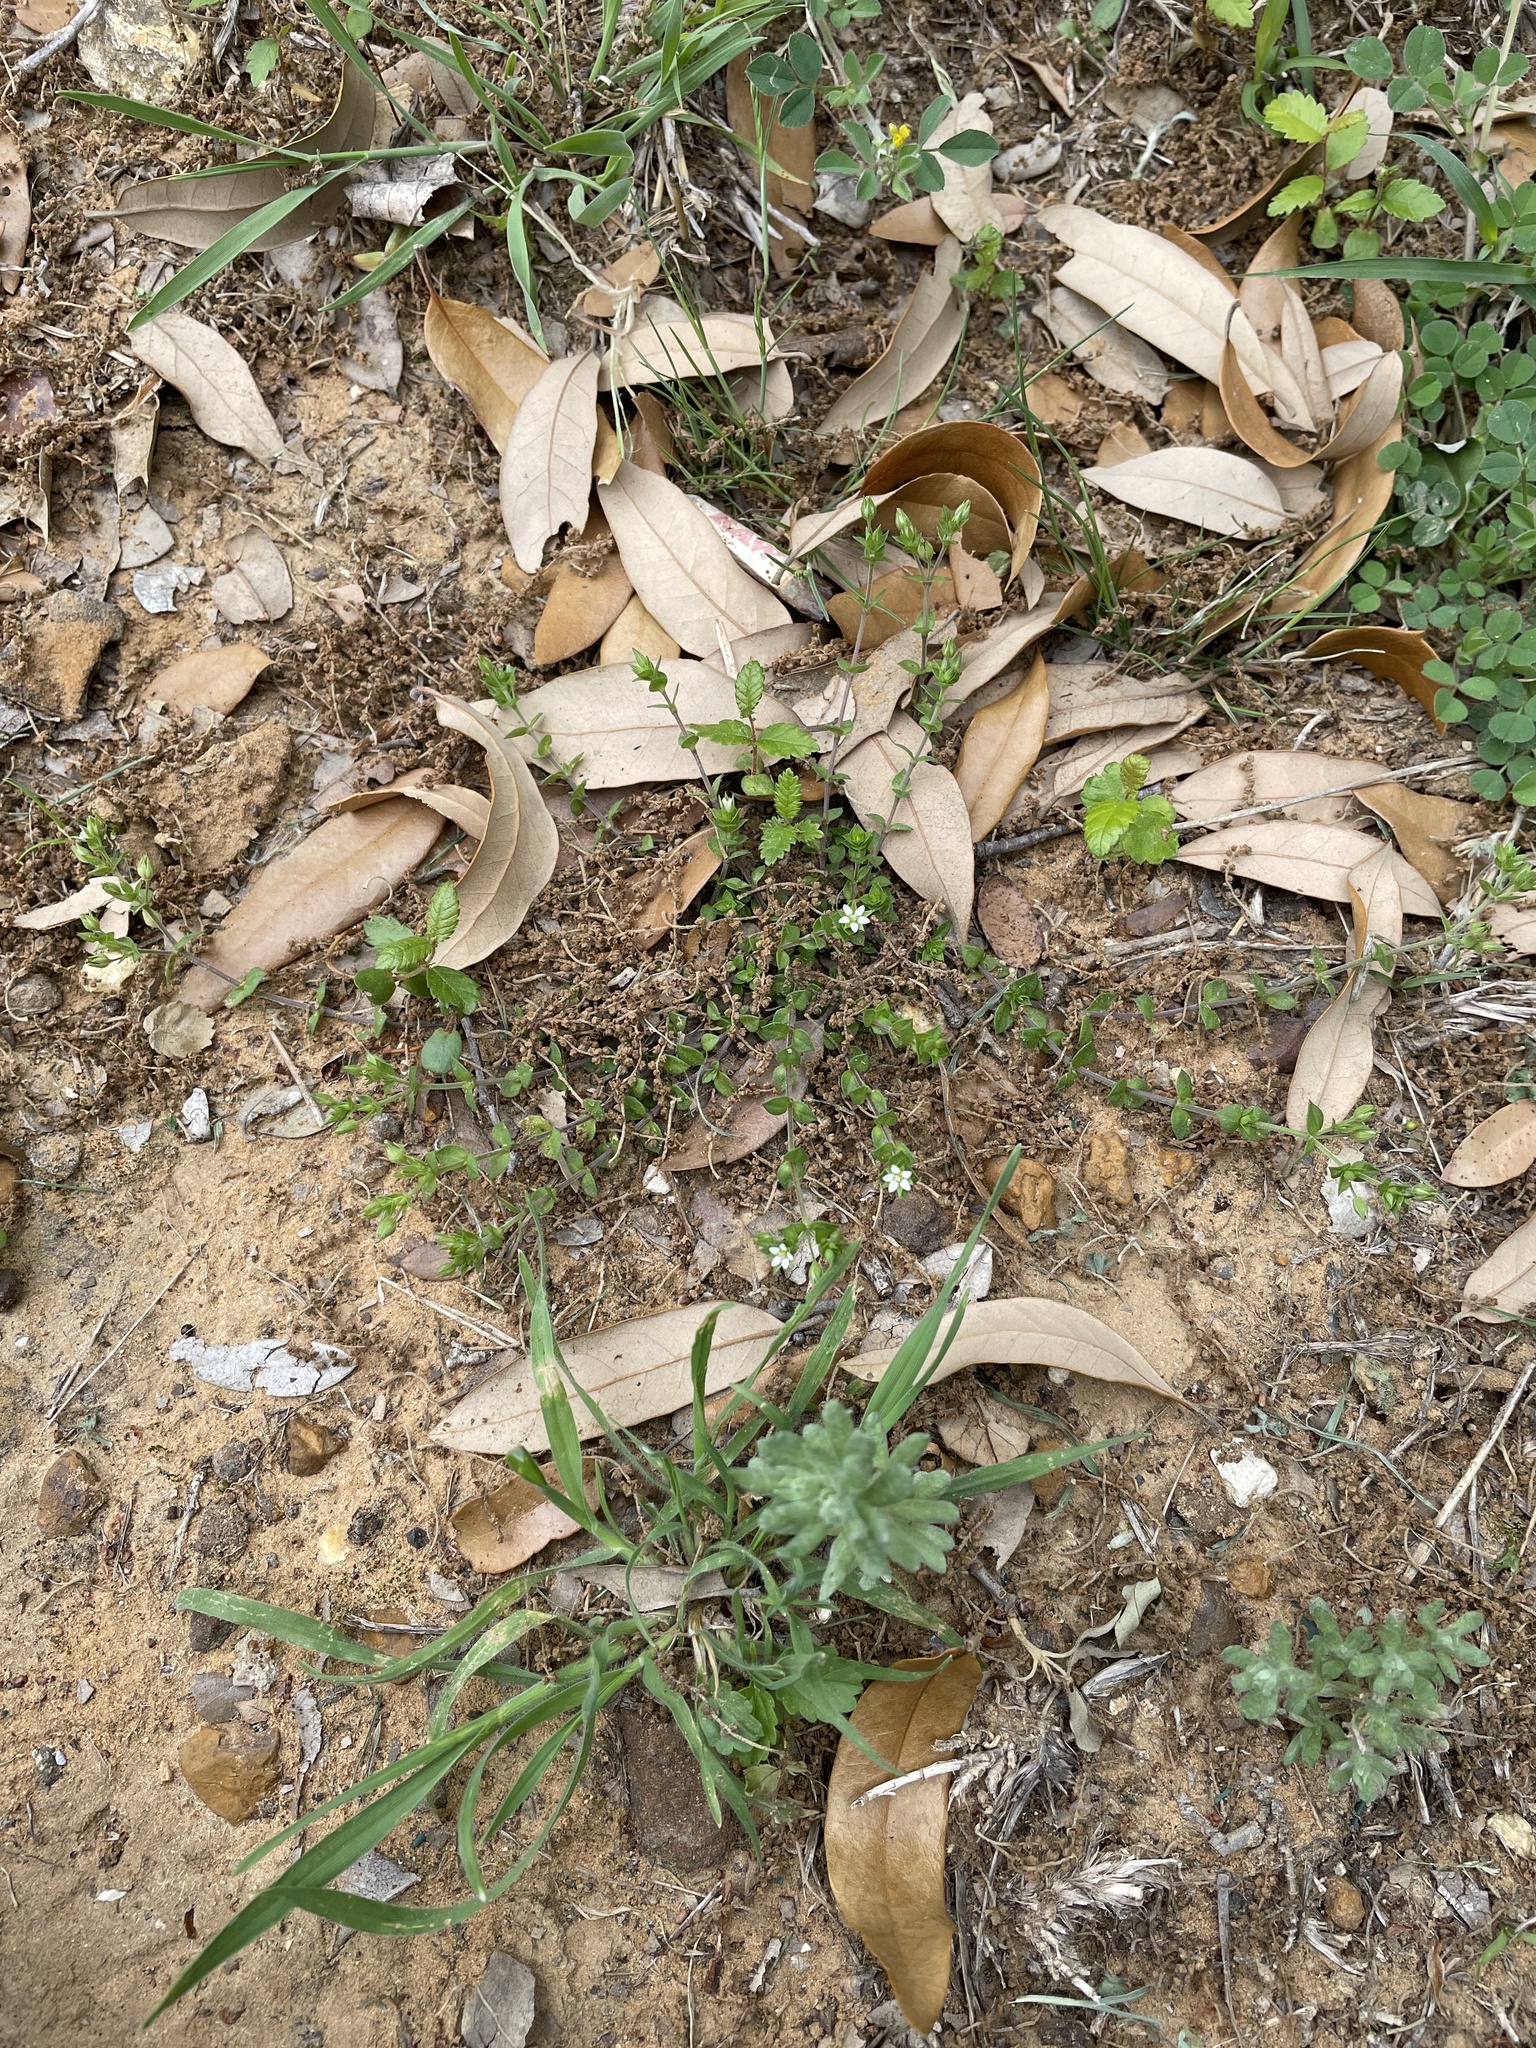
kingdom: Plantae
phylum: Tracheophyta
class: Magnoliopsida
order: Caryophyllales
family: Caryophyllaceae
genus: Arenaria
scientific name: Arenaria serpyllifolia
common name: Thyme-leaved sandwort
